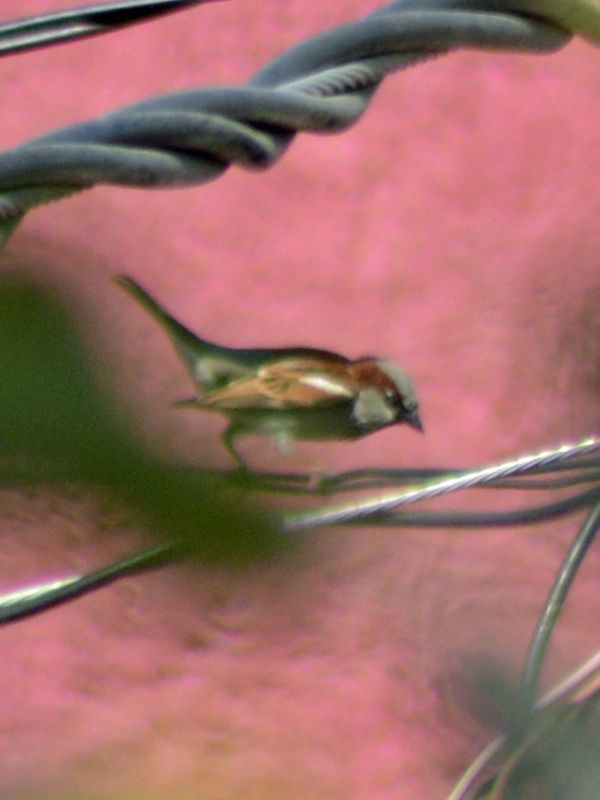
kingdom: Animalia
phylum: Chordata
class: Aves
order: Passeriformes
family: Passeridae
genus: Passer
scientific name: Passer domesticus
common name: House sparrow
